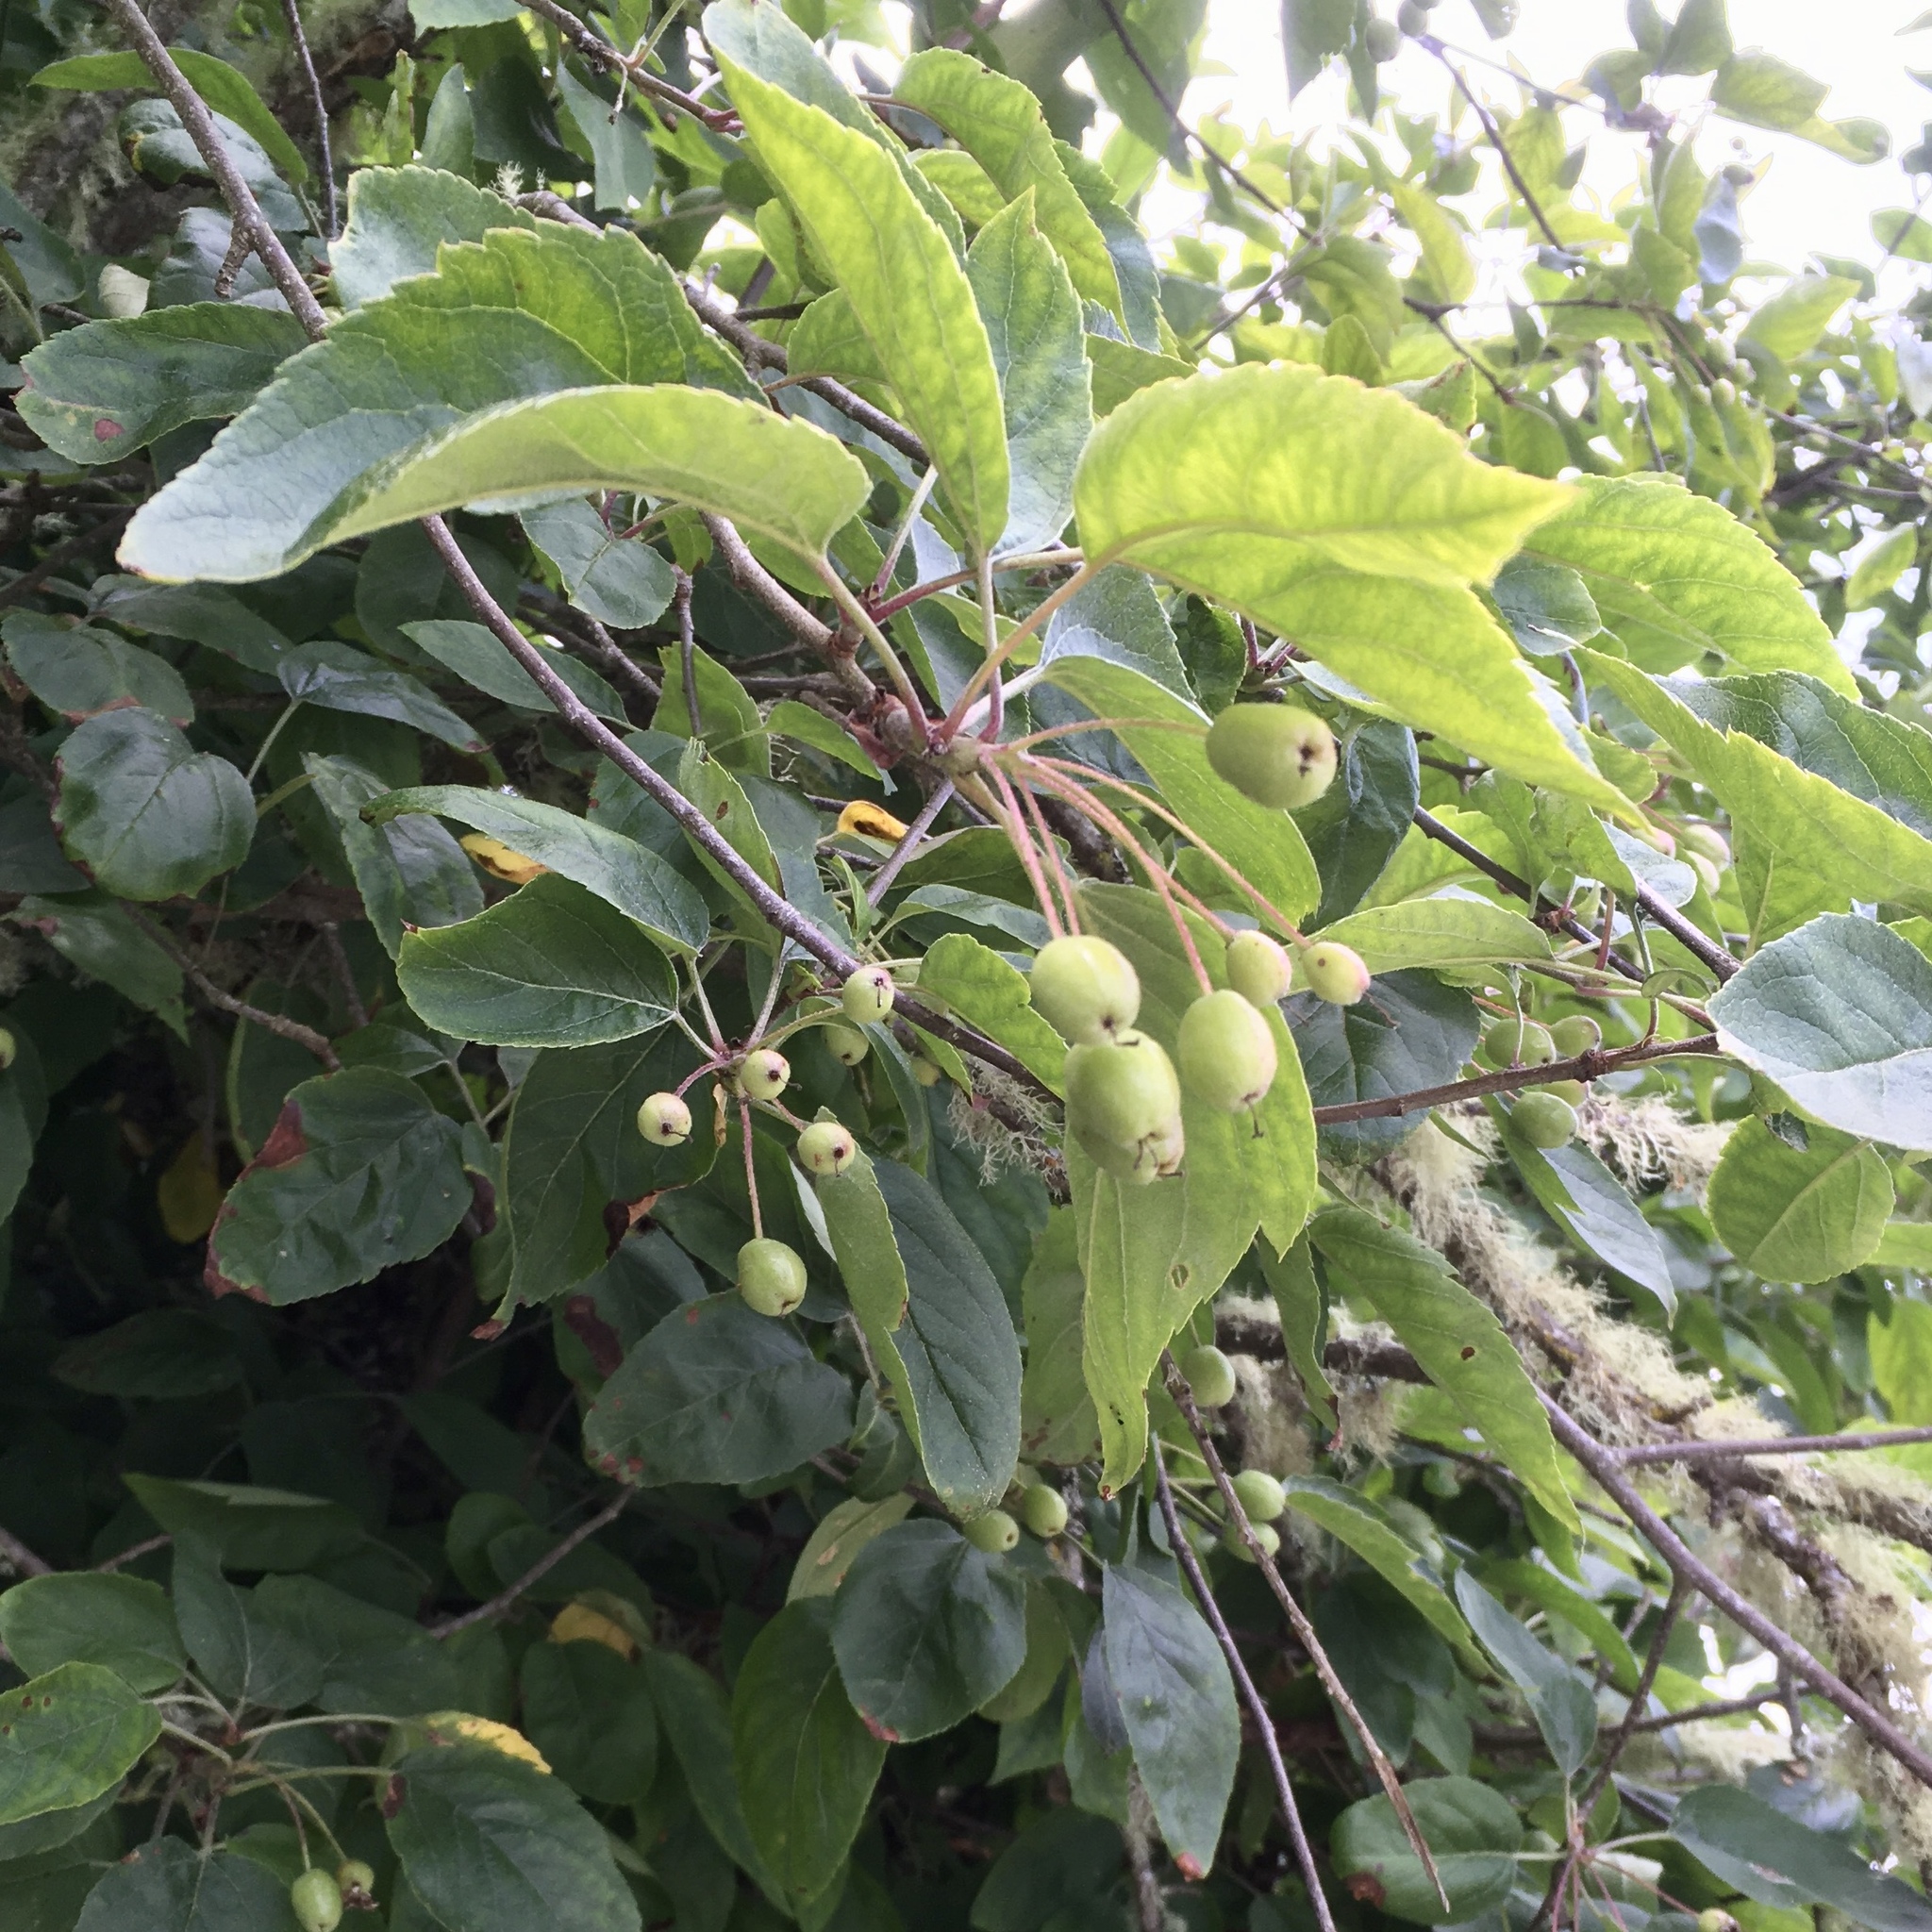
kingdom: Plantae
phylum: Tracheophyta
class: Magnoliopsida
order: Rosales
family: Rosaceae
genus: Malus
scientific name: Malus fusca
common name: Oregon crab apple
